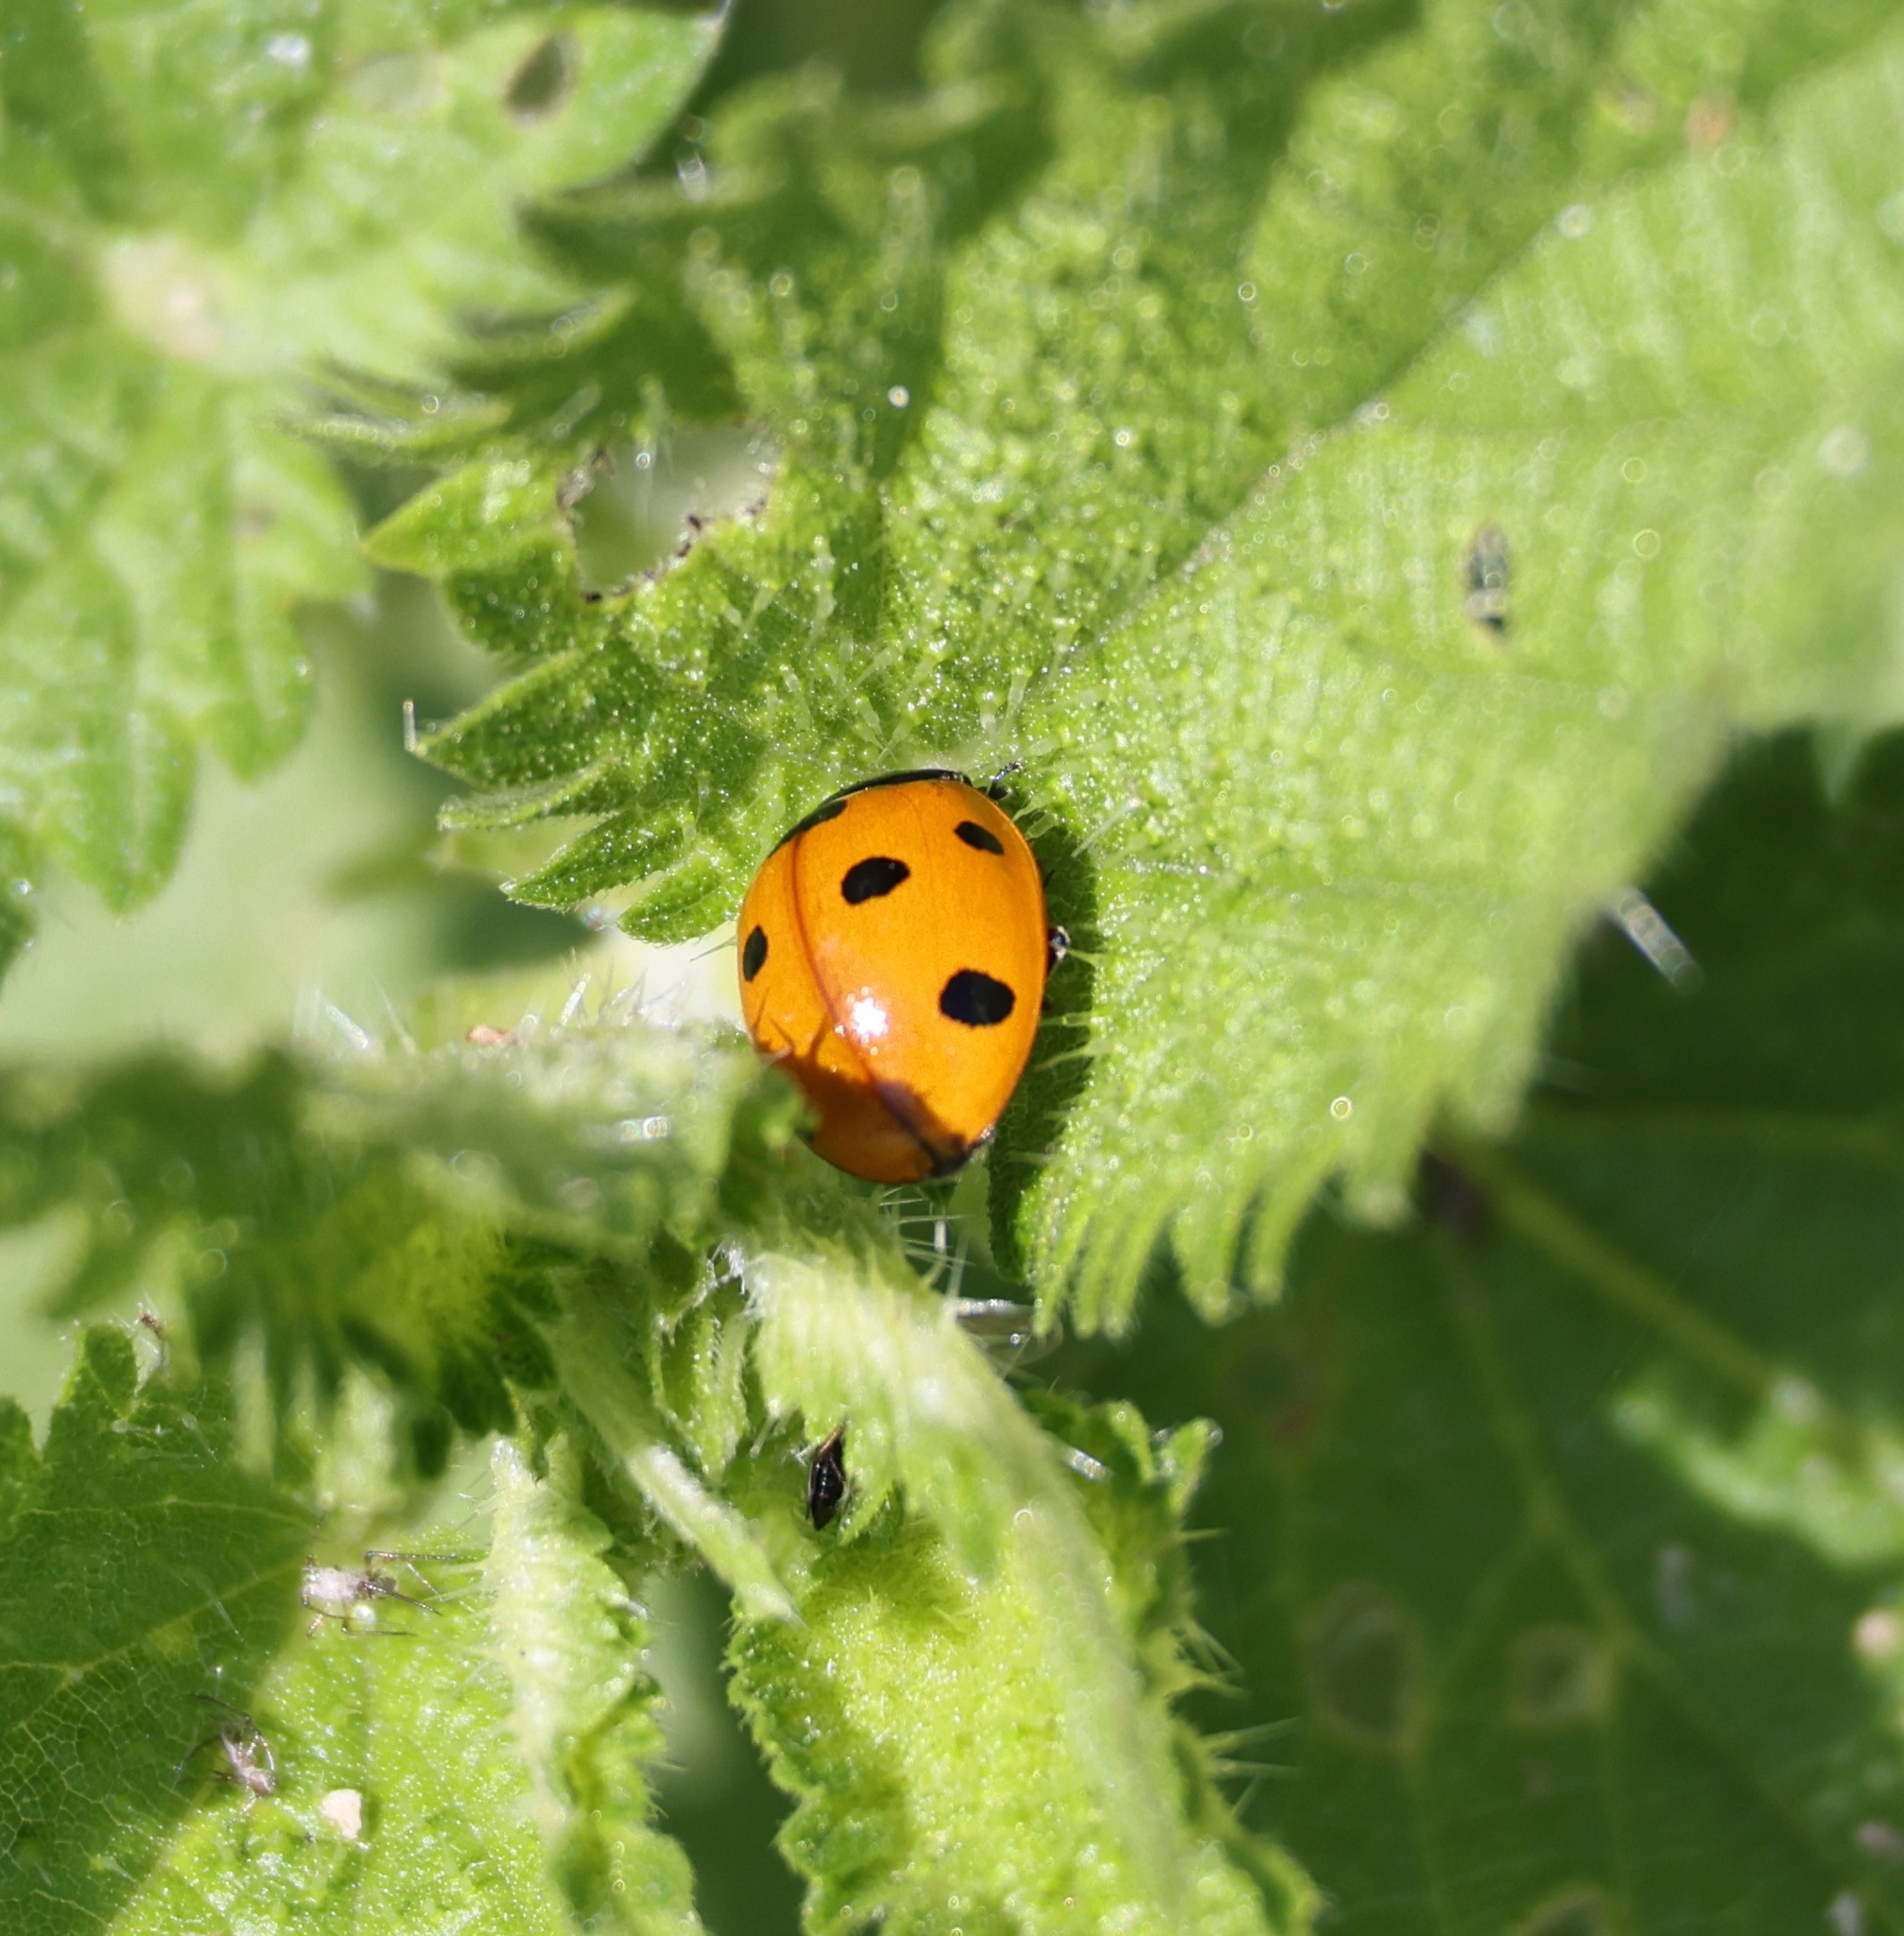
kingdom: Animalia
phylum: Arthropoda
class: Insecta
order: Coleoptera
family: Coccinellidae
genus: Coccinella
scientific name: Coccinella septempunctata
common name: Sevenspotted lady beetle
